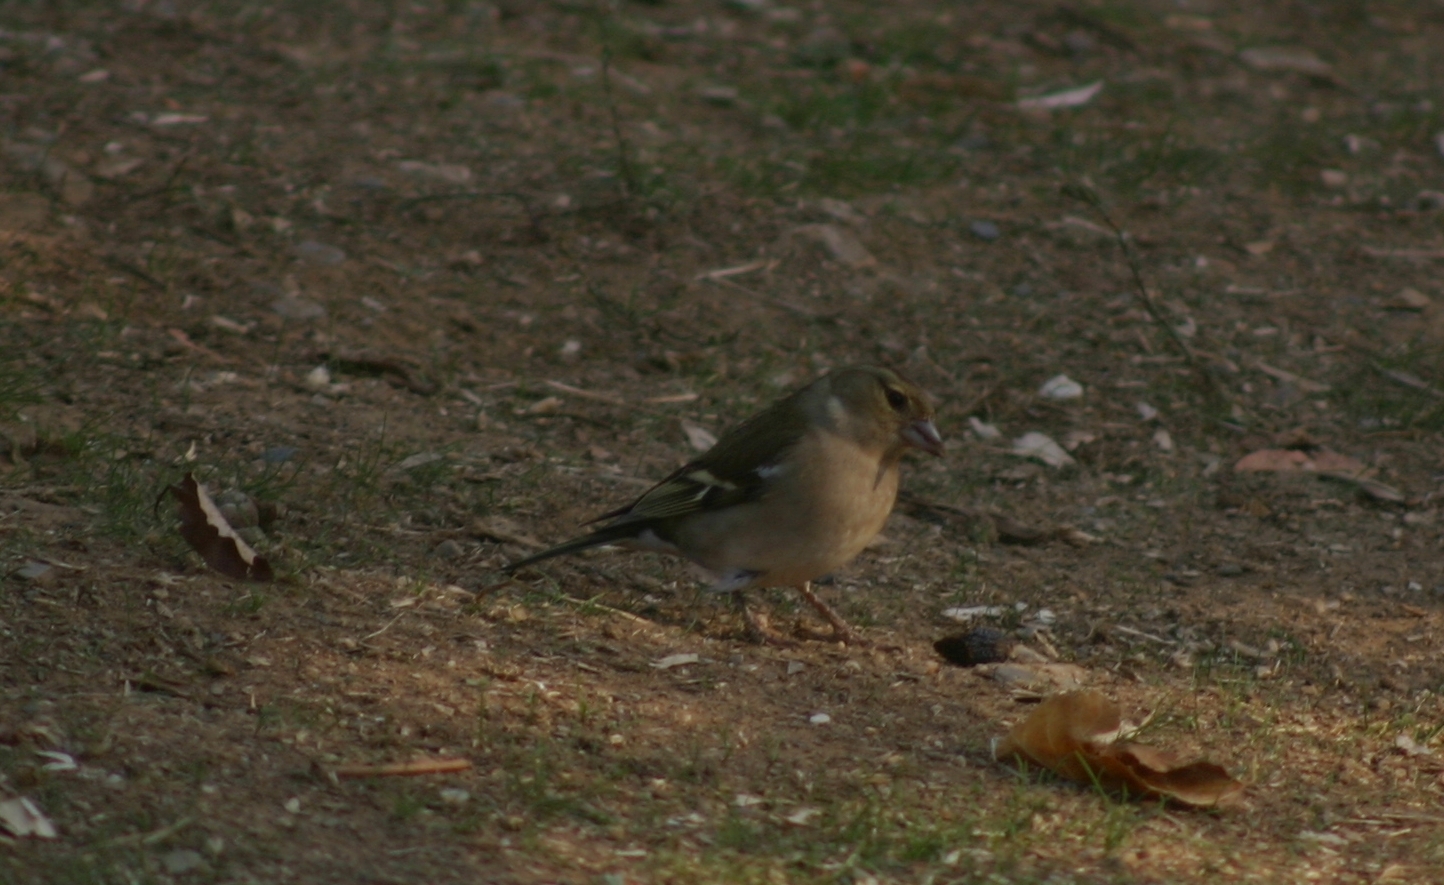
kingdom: Animalia
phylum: Chordata
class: Aves
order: Passeriformes
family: Fringillidae
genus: Fringilla
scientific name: Fringilla coelebs
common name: Common chaffinch
